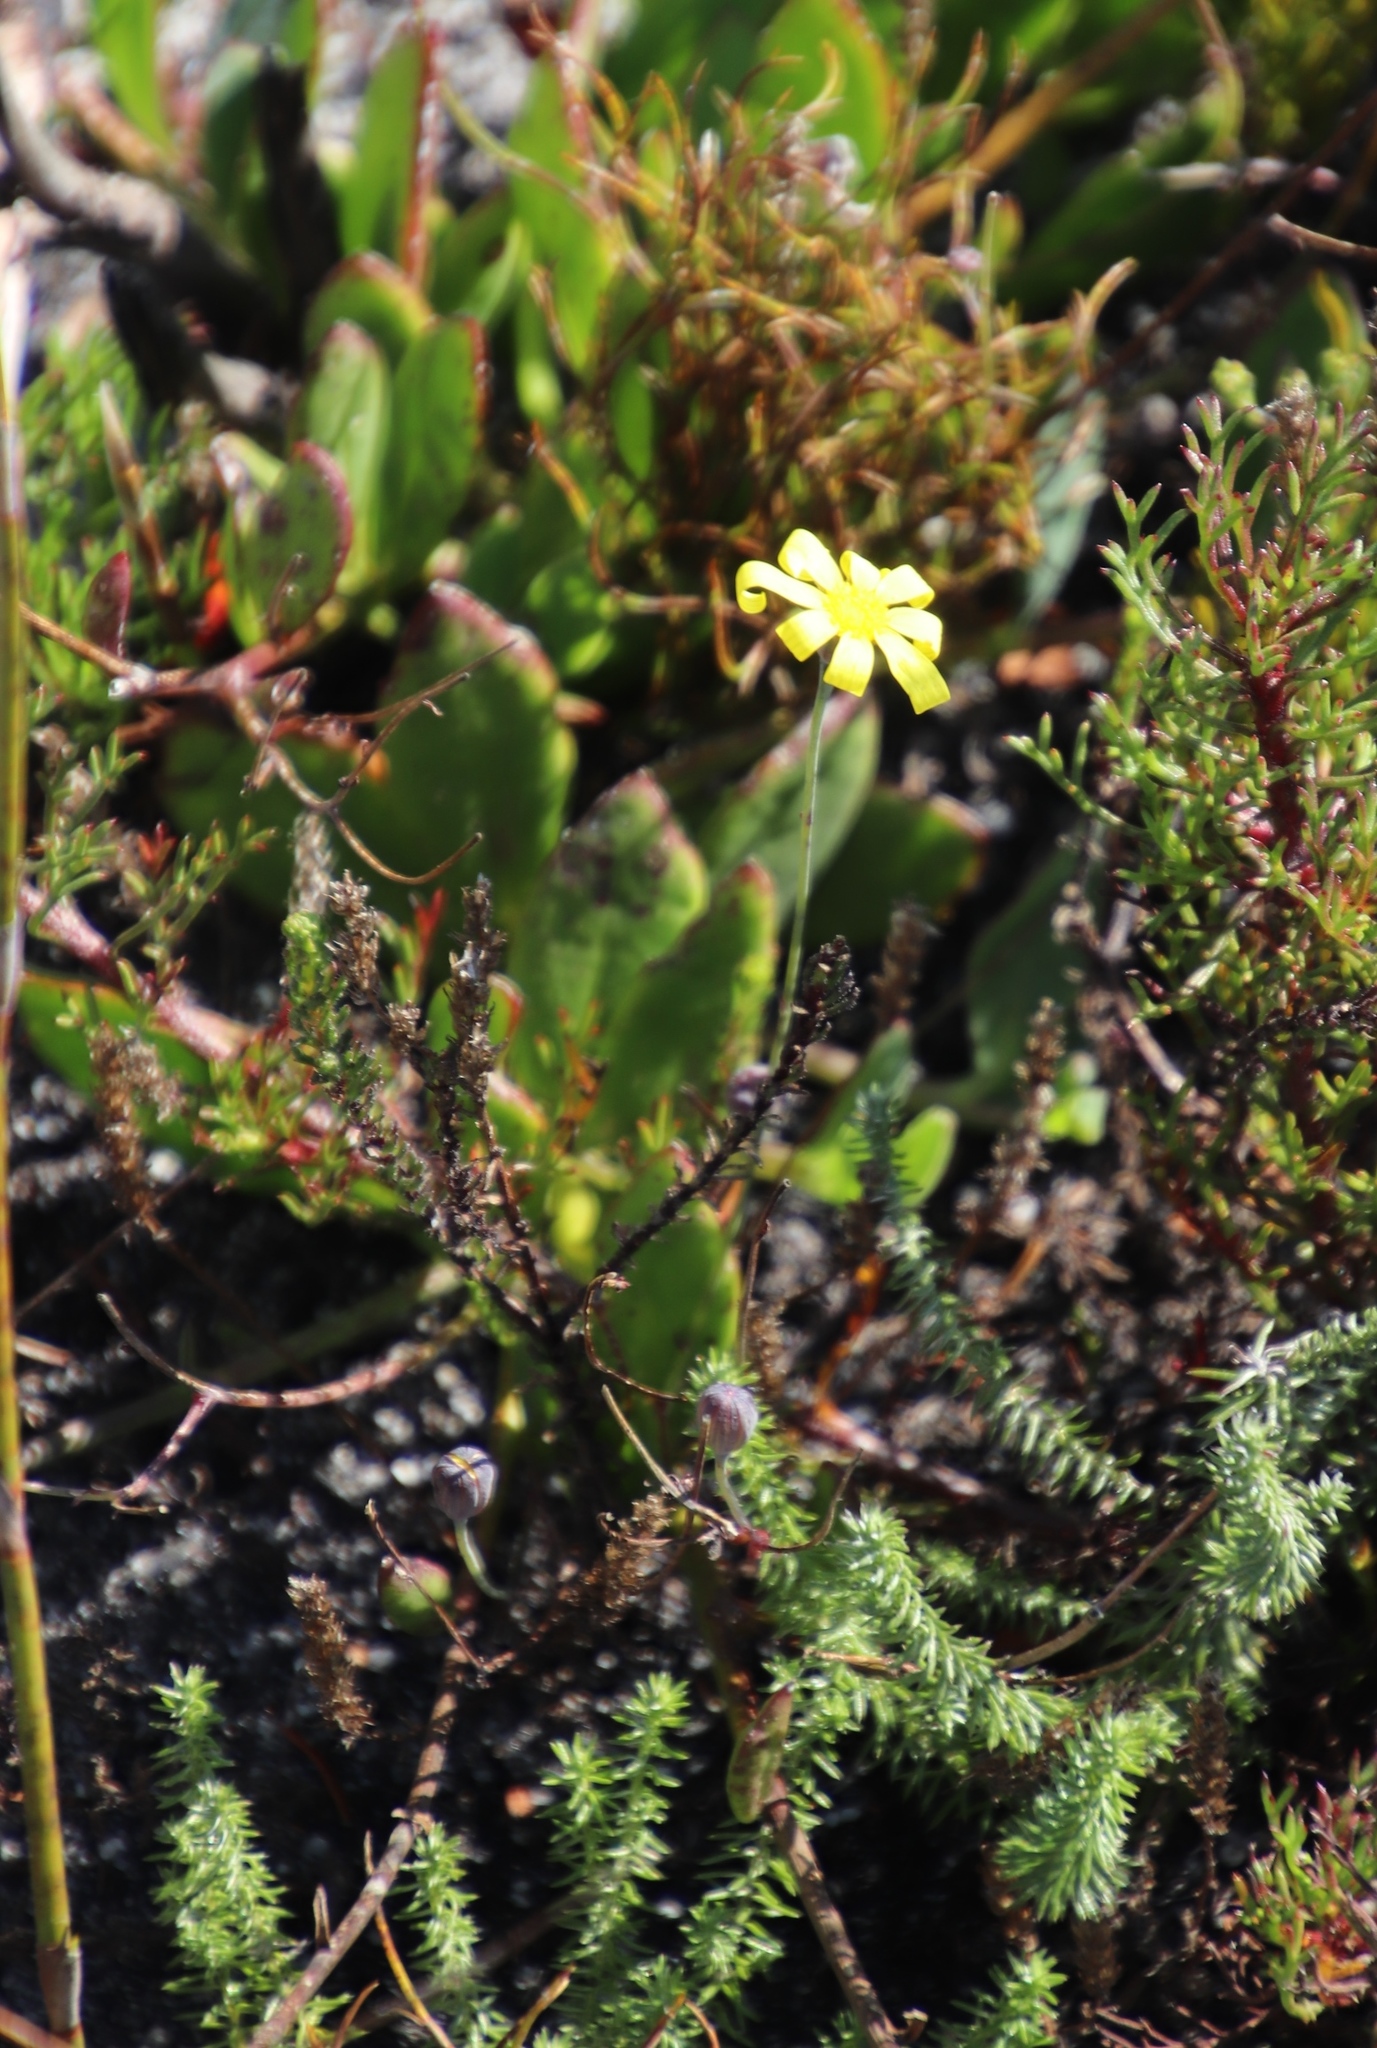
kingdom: Plantae
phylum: Tracheophyta
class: Magnoliopsida
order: Asterales
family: Asteraceae
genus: Othonna
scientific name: Othonna multicaulis
